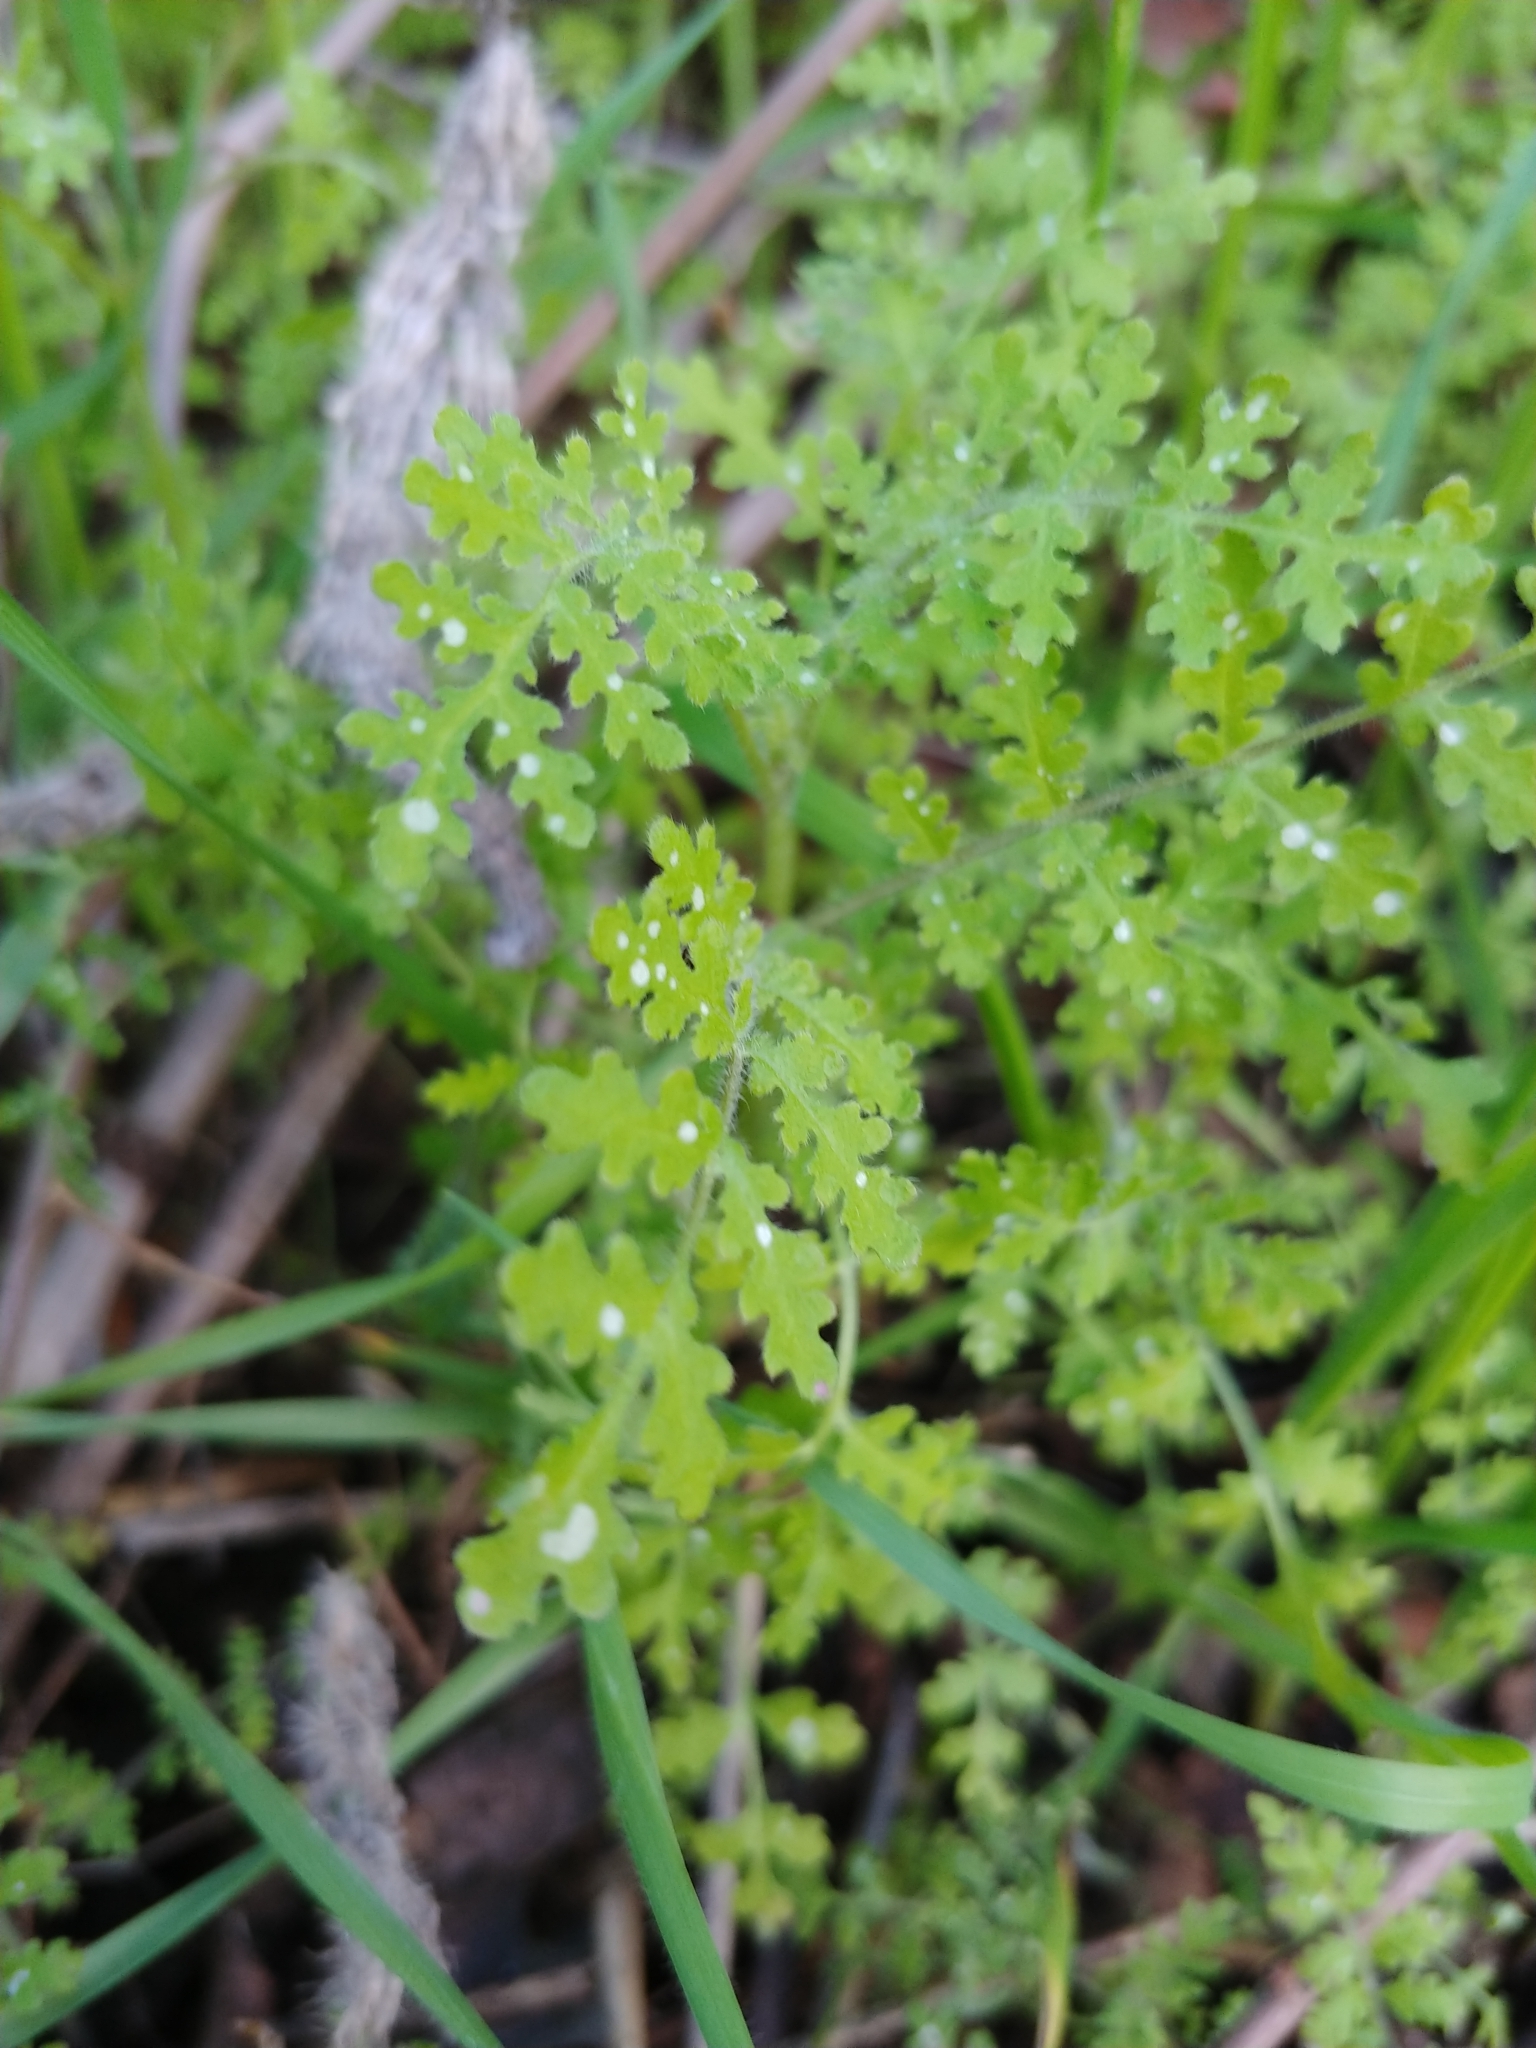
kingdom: Plantae
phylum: Tracheophyta
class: Magnoliopsida
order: Boraginales
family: Hydrophyllaceae
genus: Eucrypta
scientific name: Eucrypta chrysanthemifolia
